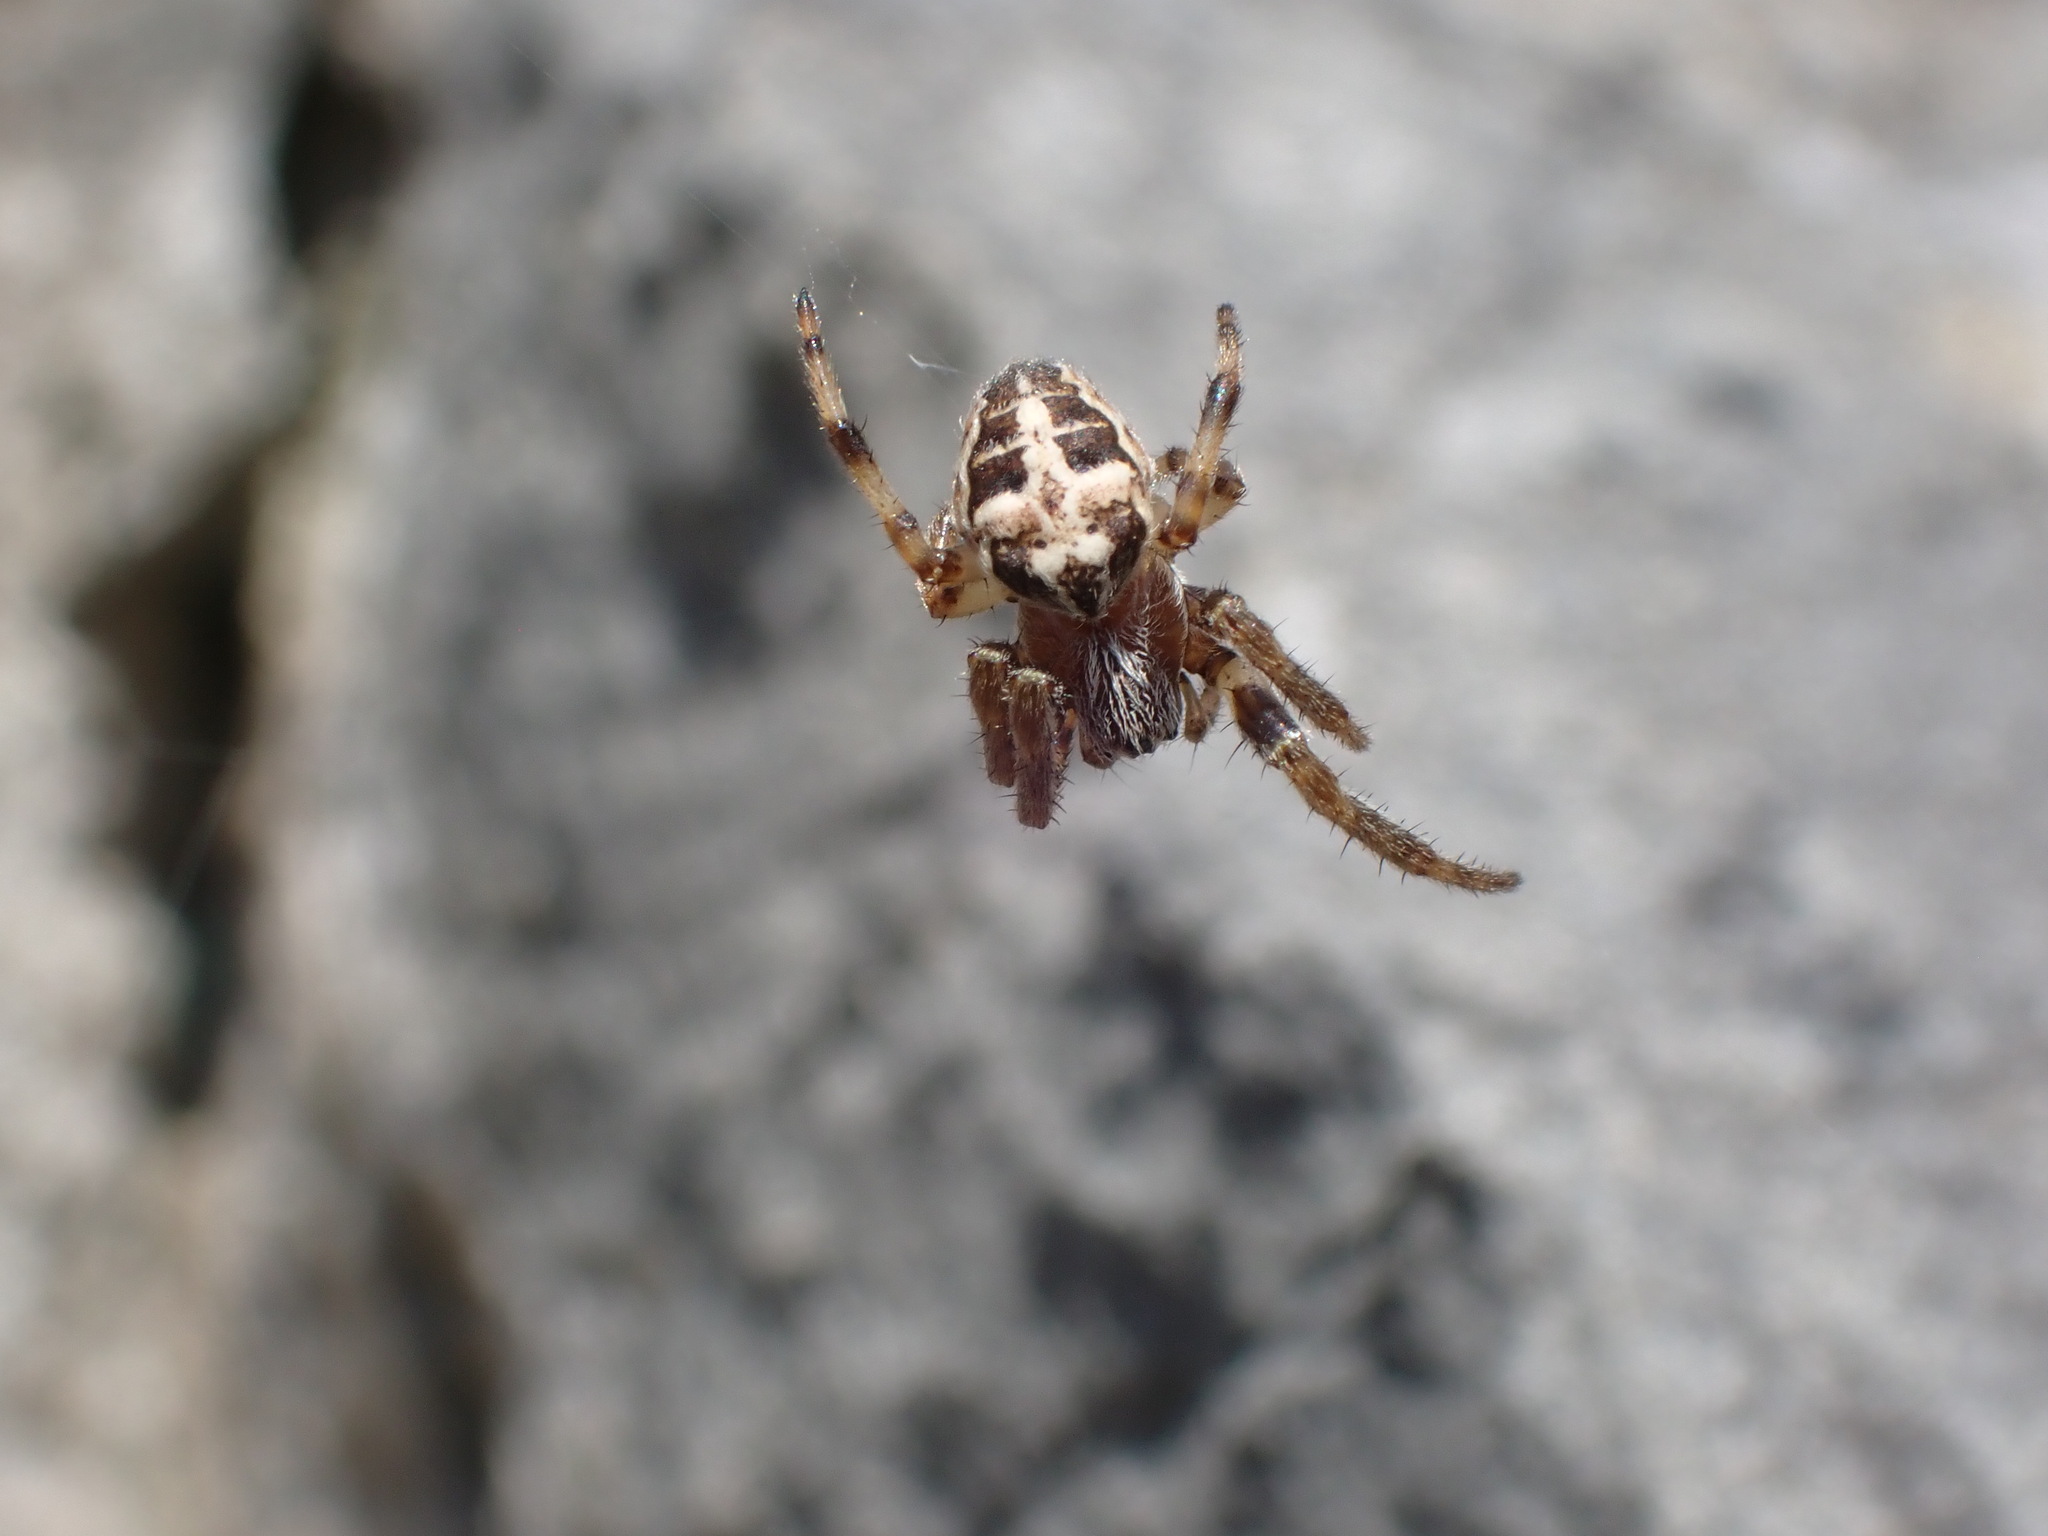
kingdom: Animalia
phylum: Arthropoda
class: Arachnida
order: Araneae
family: Araneidae
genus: Larinioides
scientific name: Larinioides cornutus
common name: Furrow orbweaver
